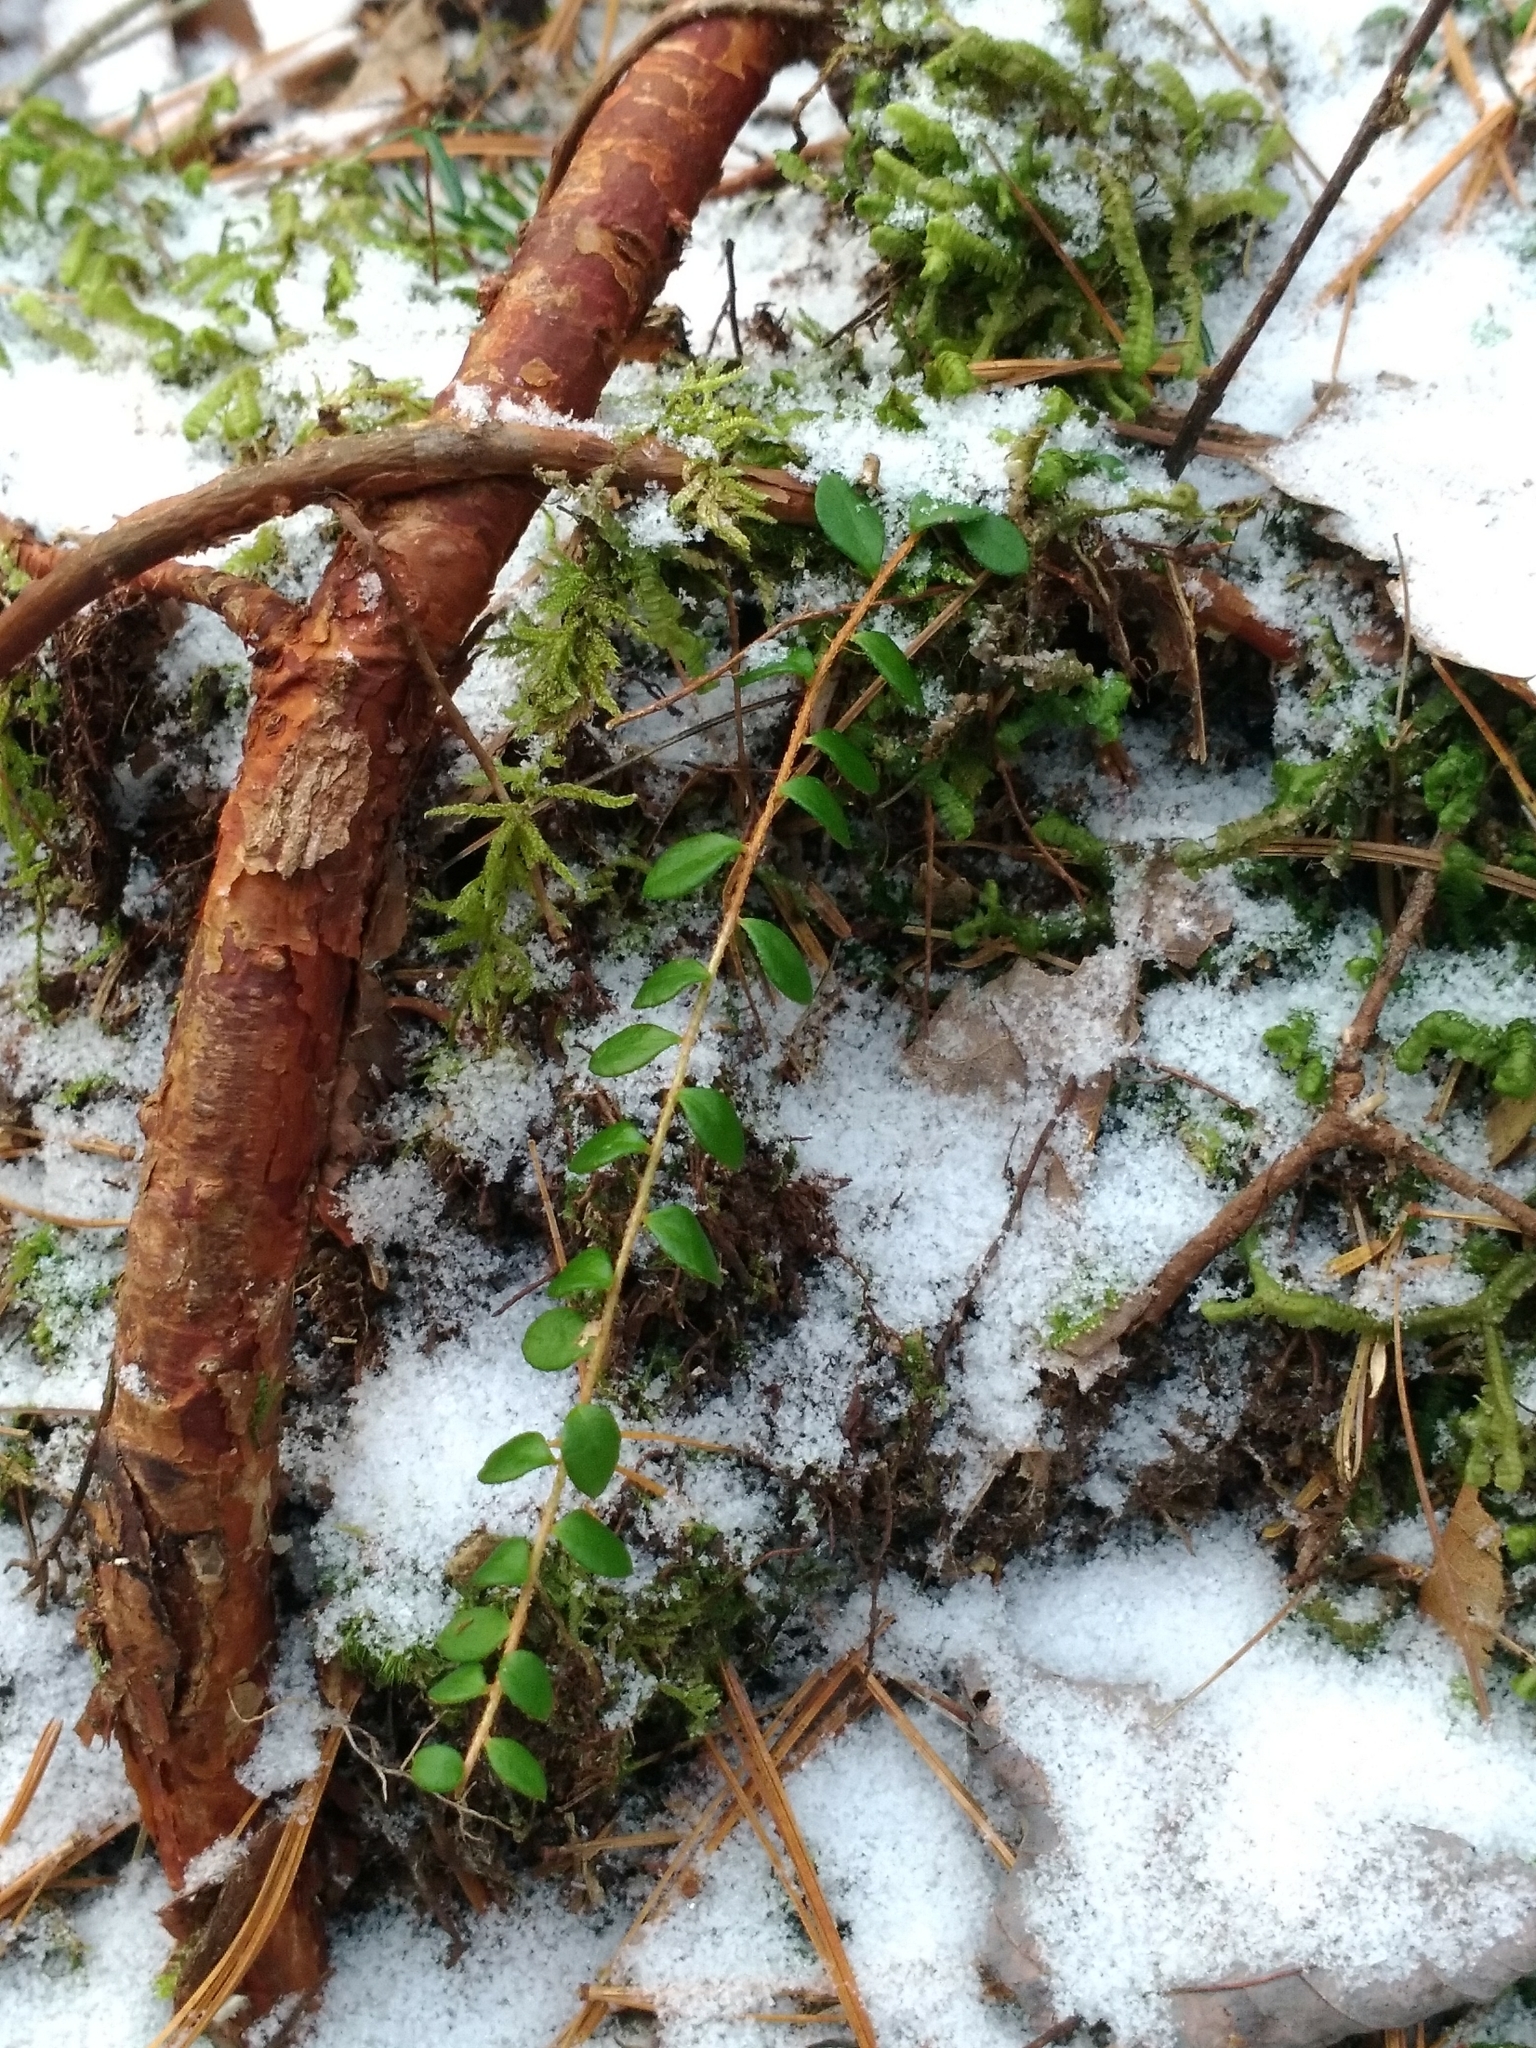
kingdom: Plantae
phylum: Tracheophyta
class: Magnoliopsida
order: Ericales
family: Ericaceae
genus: Gaultheria
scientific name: Gaultheria hispidula
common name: Cancer wintergreen
